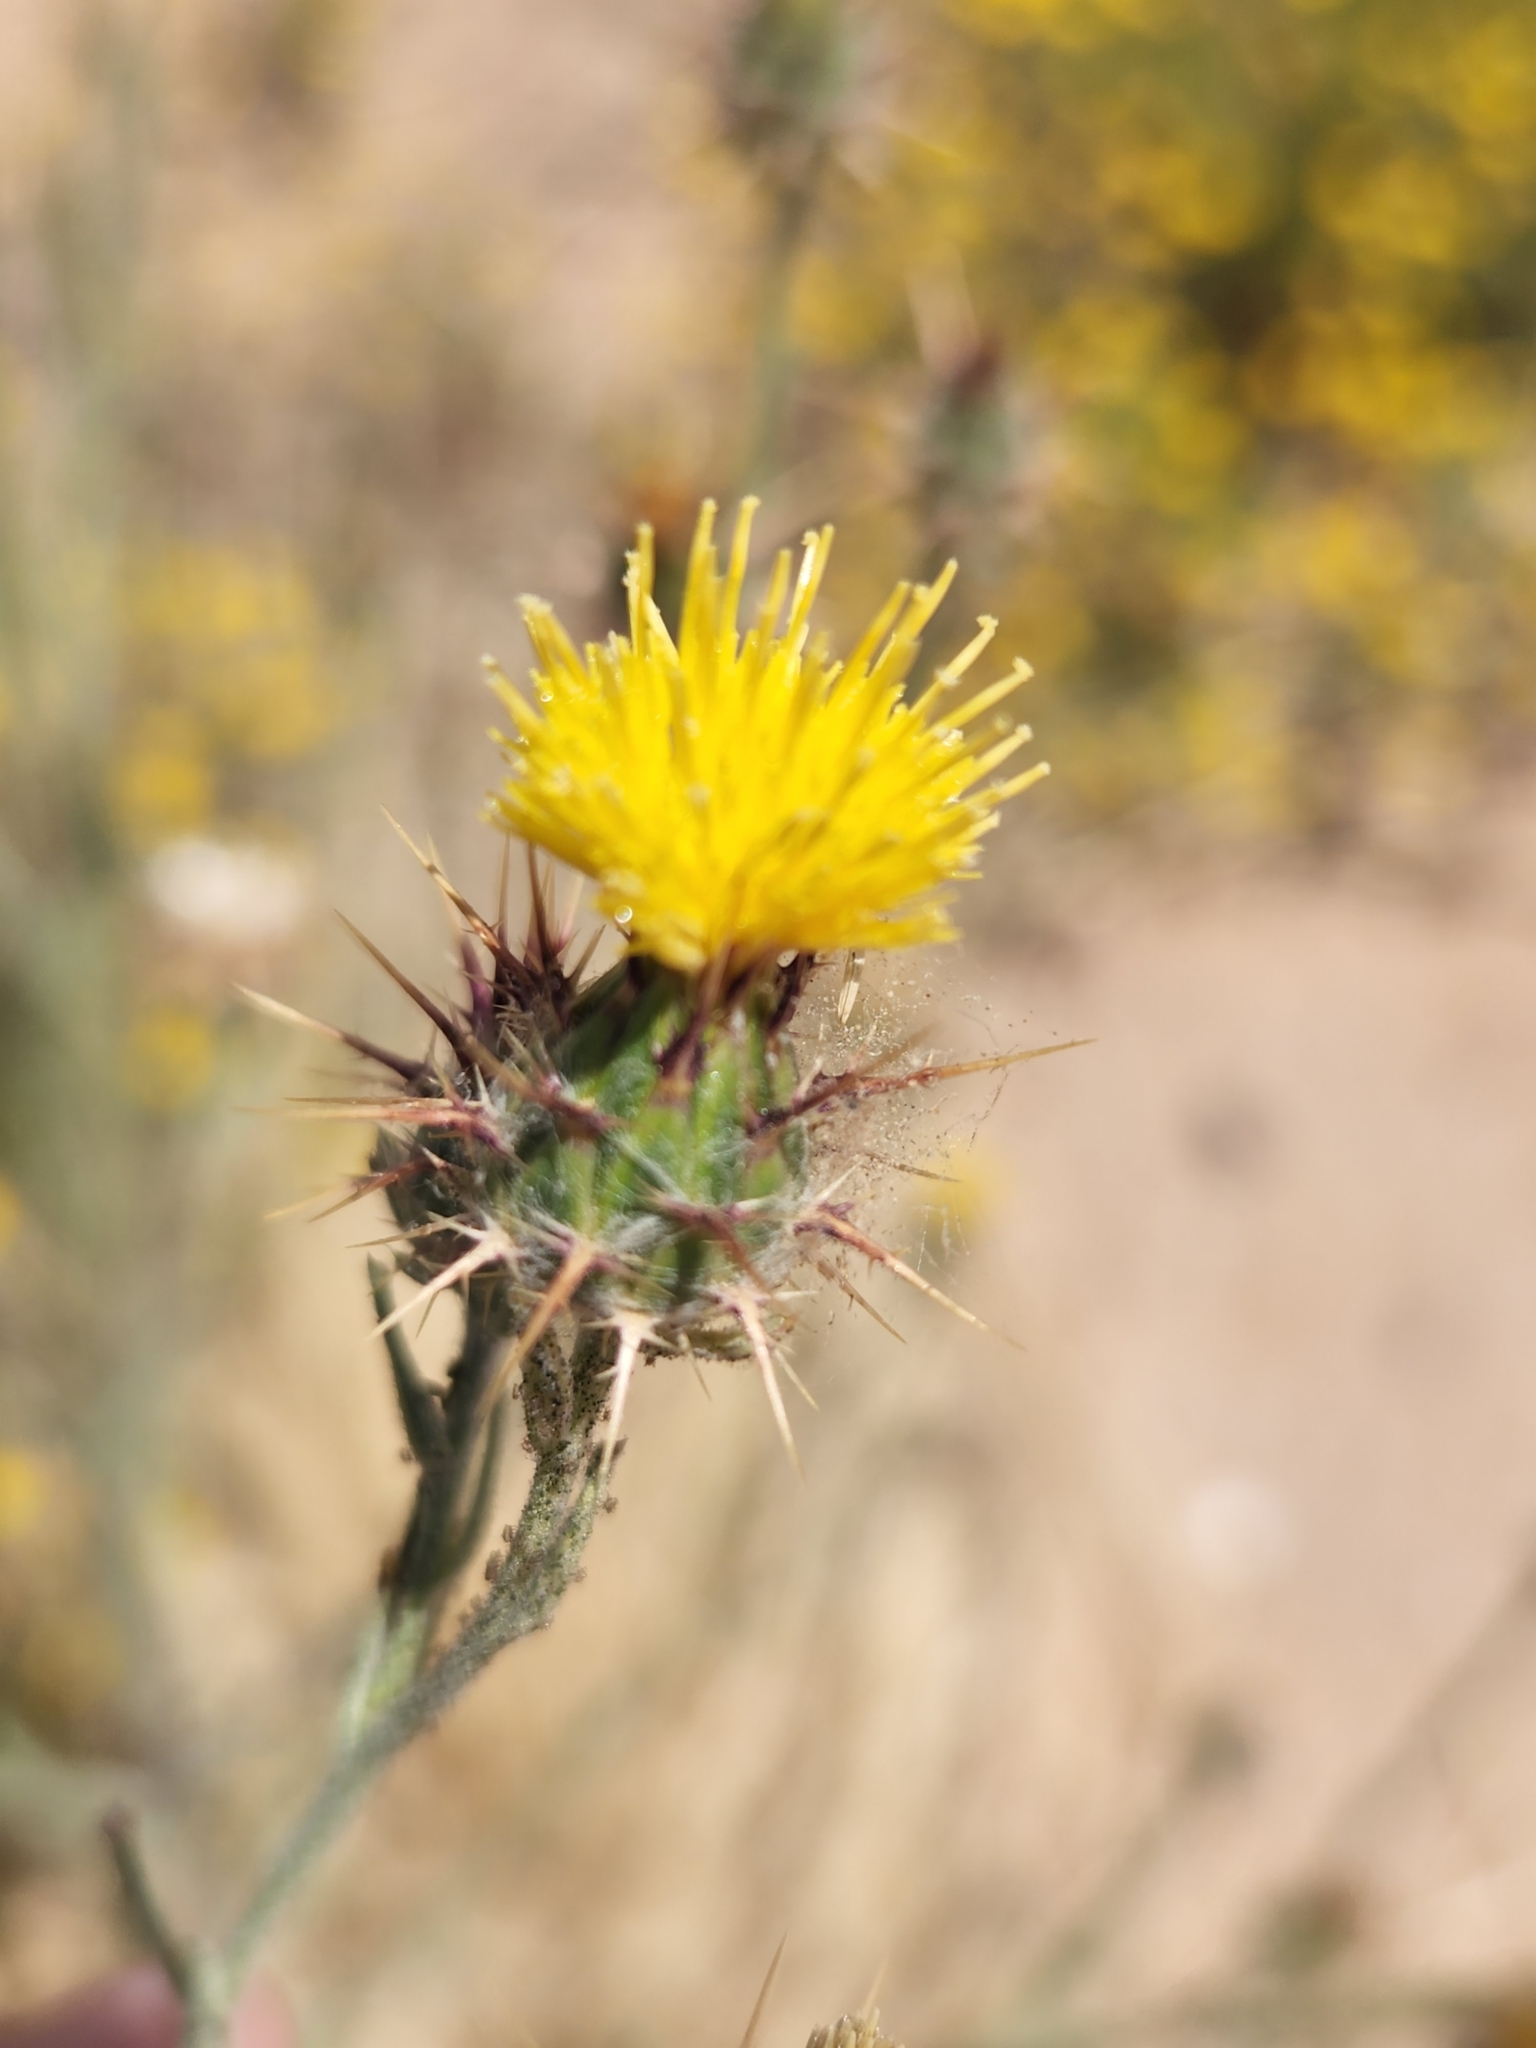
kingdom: Plantae
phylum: Tracheophyta
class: Magnoliopsida
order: Asterales
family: Asteraceae
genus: Centaurea
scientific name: Centaurea melitensis
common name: Maltese star-thistle
